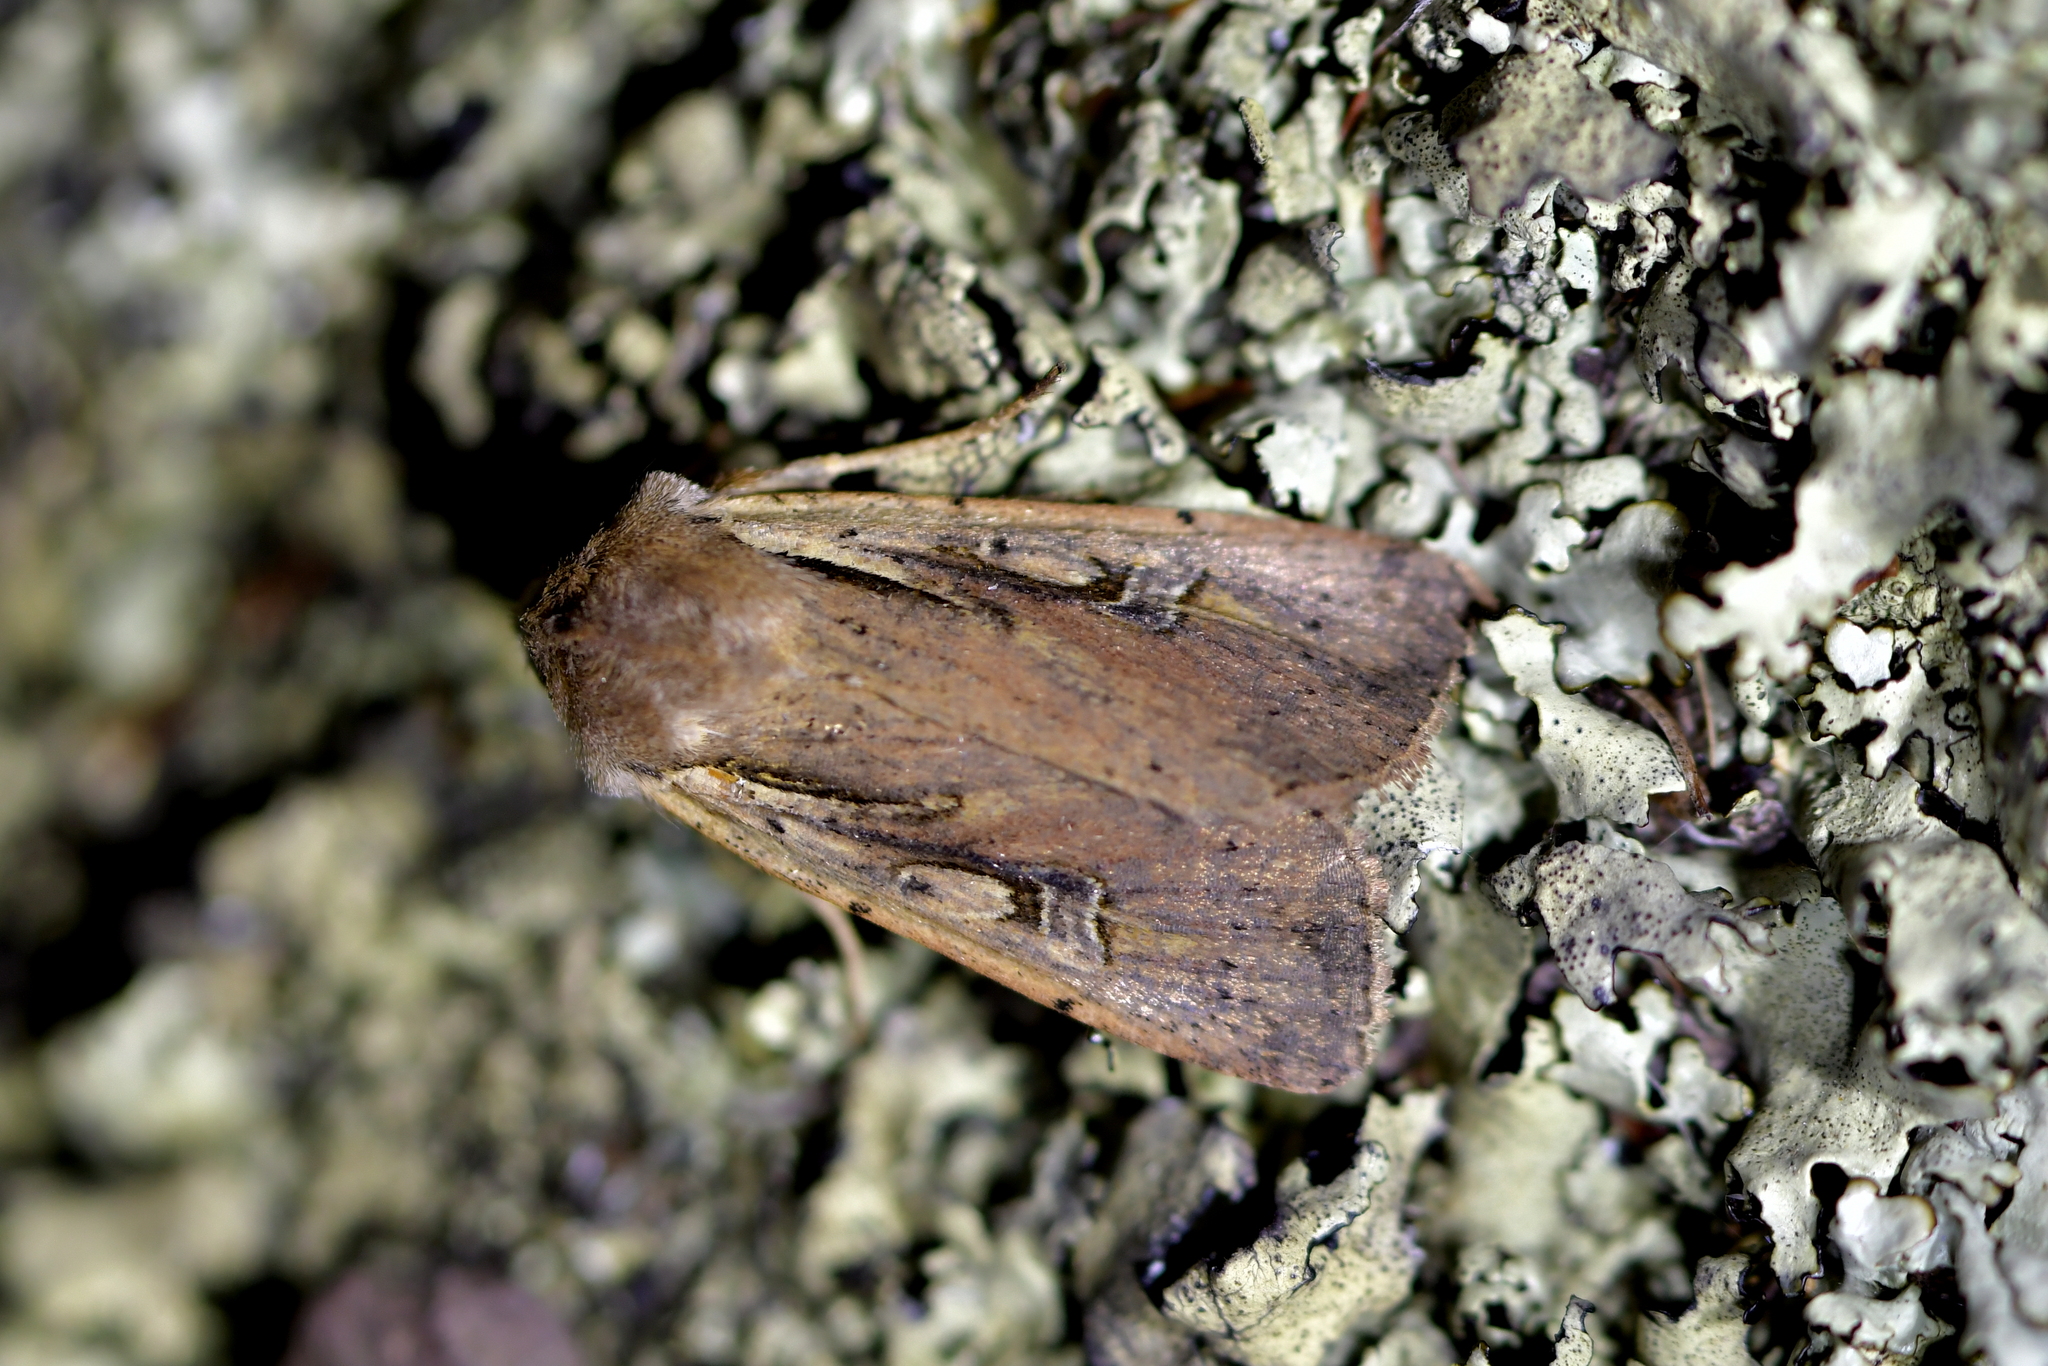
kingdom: Animalia
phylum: Arthropoda
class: Insecta
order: Lepidoptera
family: Noctuidae
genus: Ichneutica
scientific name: Ichneutica atristriga
